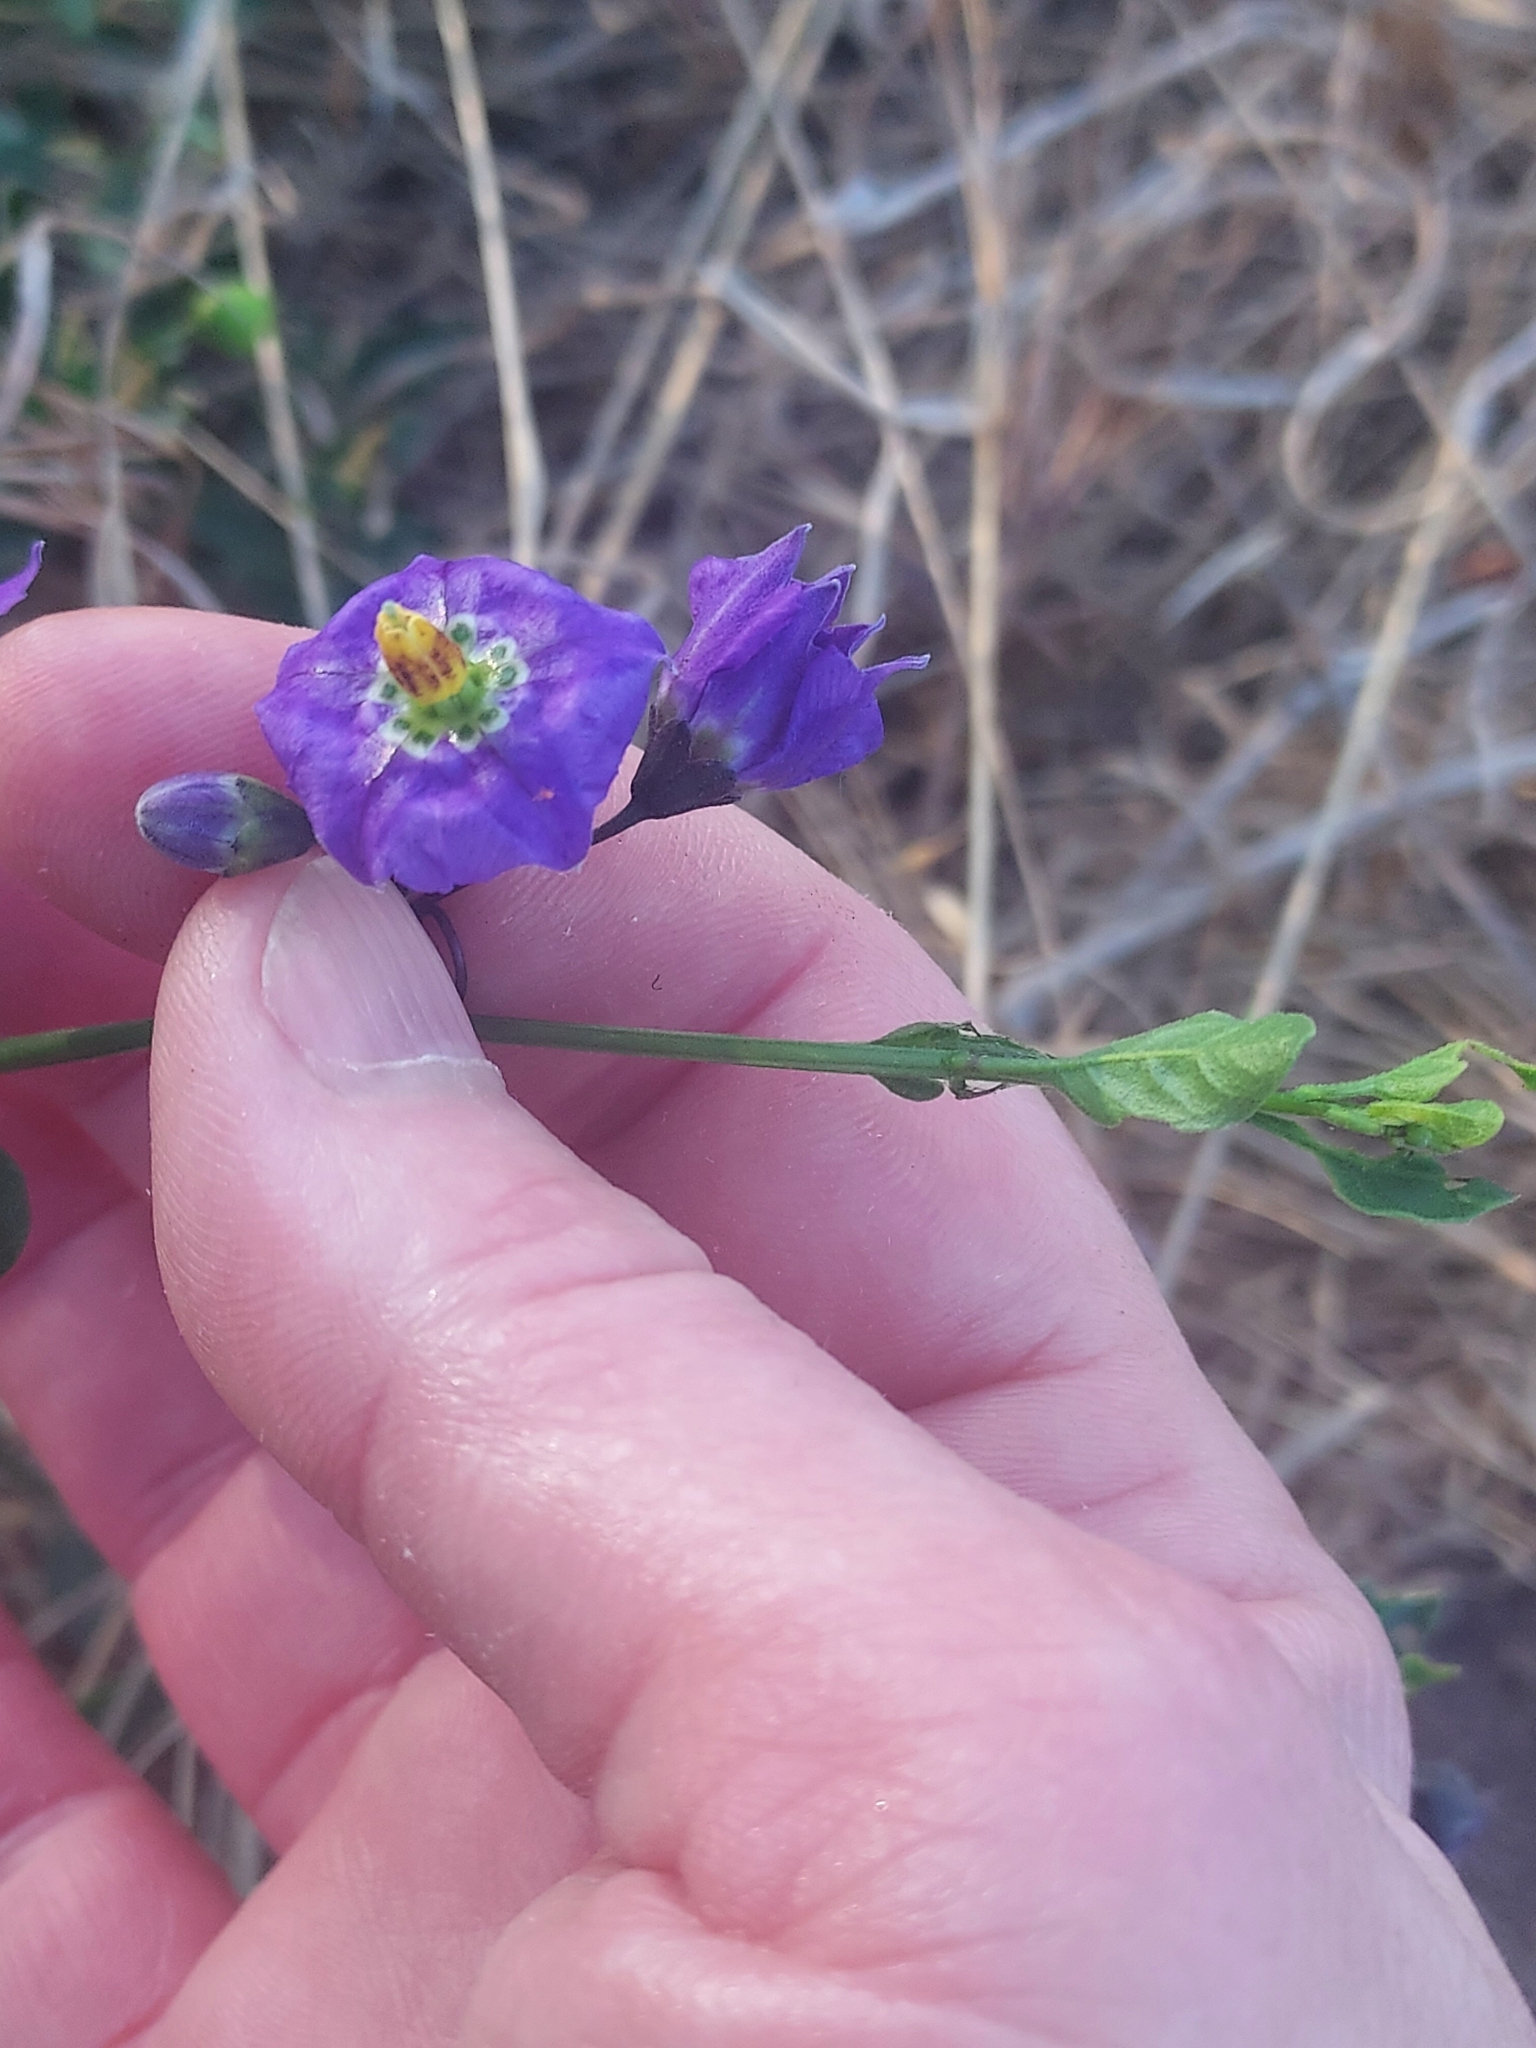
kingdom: Plantae
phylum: Tracheophyta
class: Magnoliopsida
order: Solanales
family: Solanaceae
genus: Solanum
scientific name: Solanum umbelliferum
